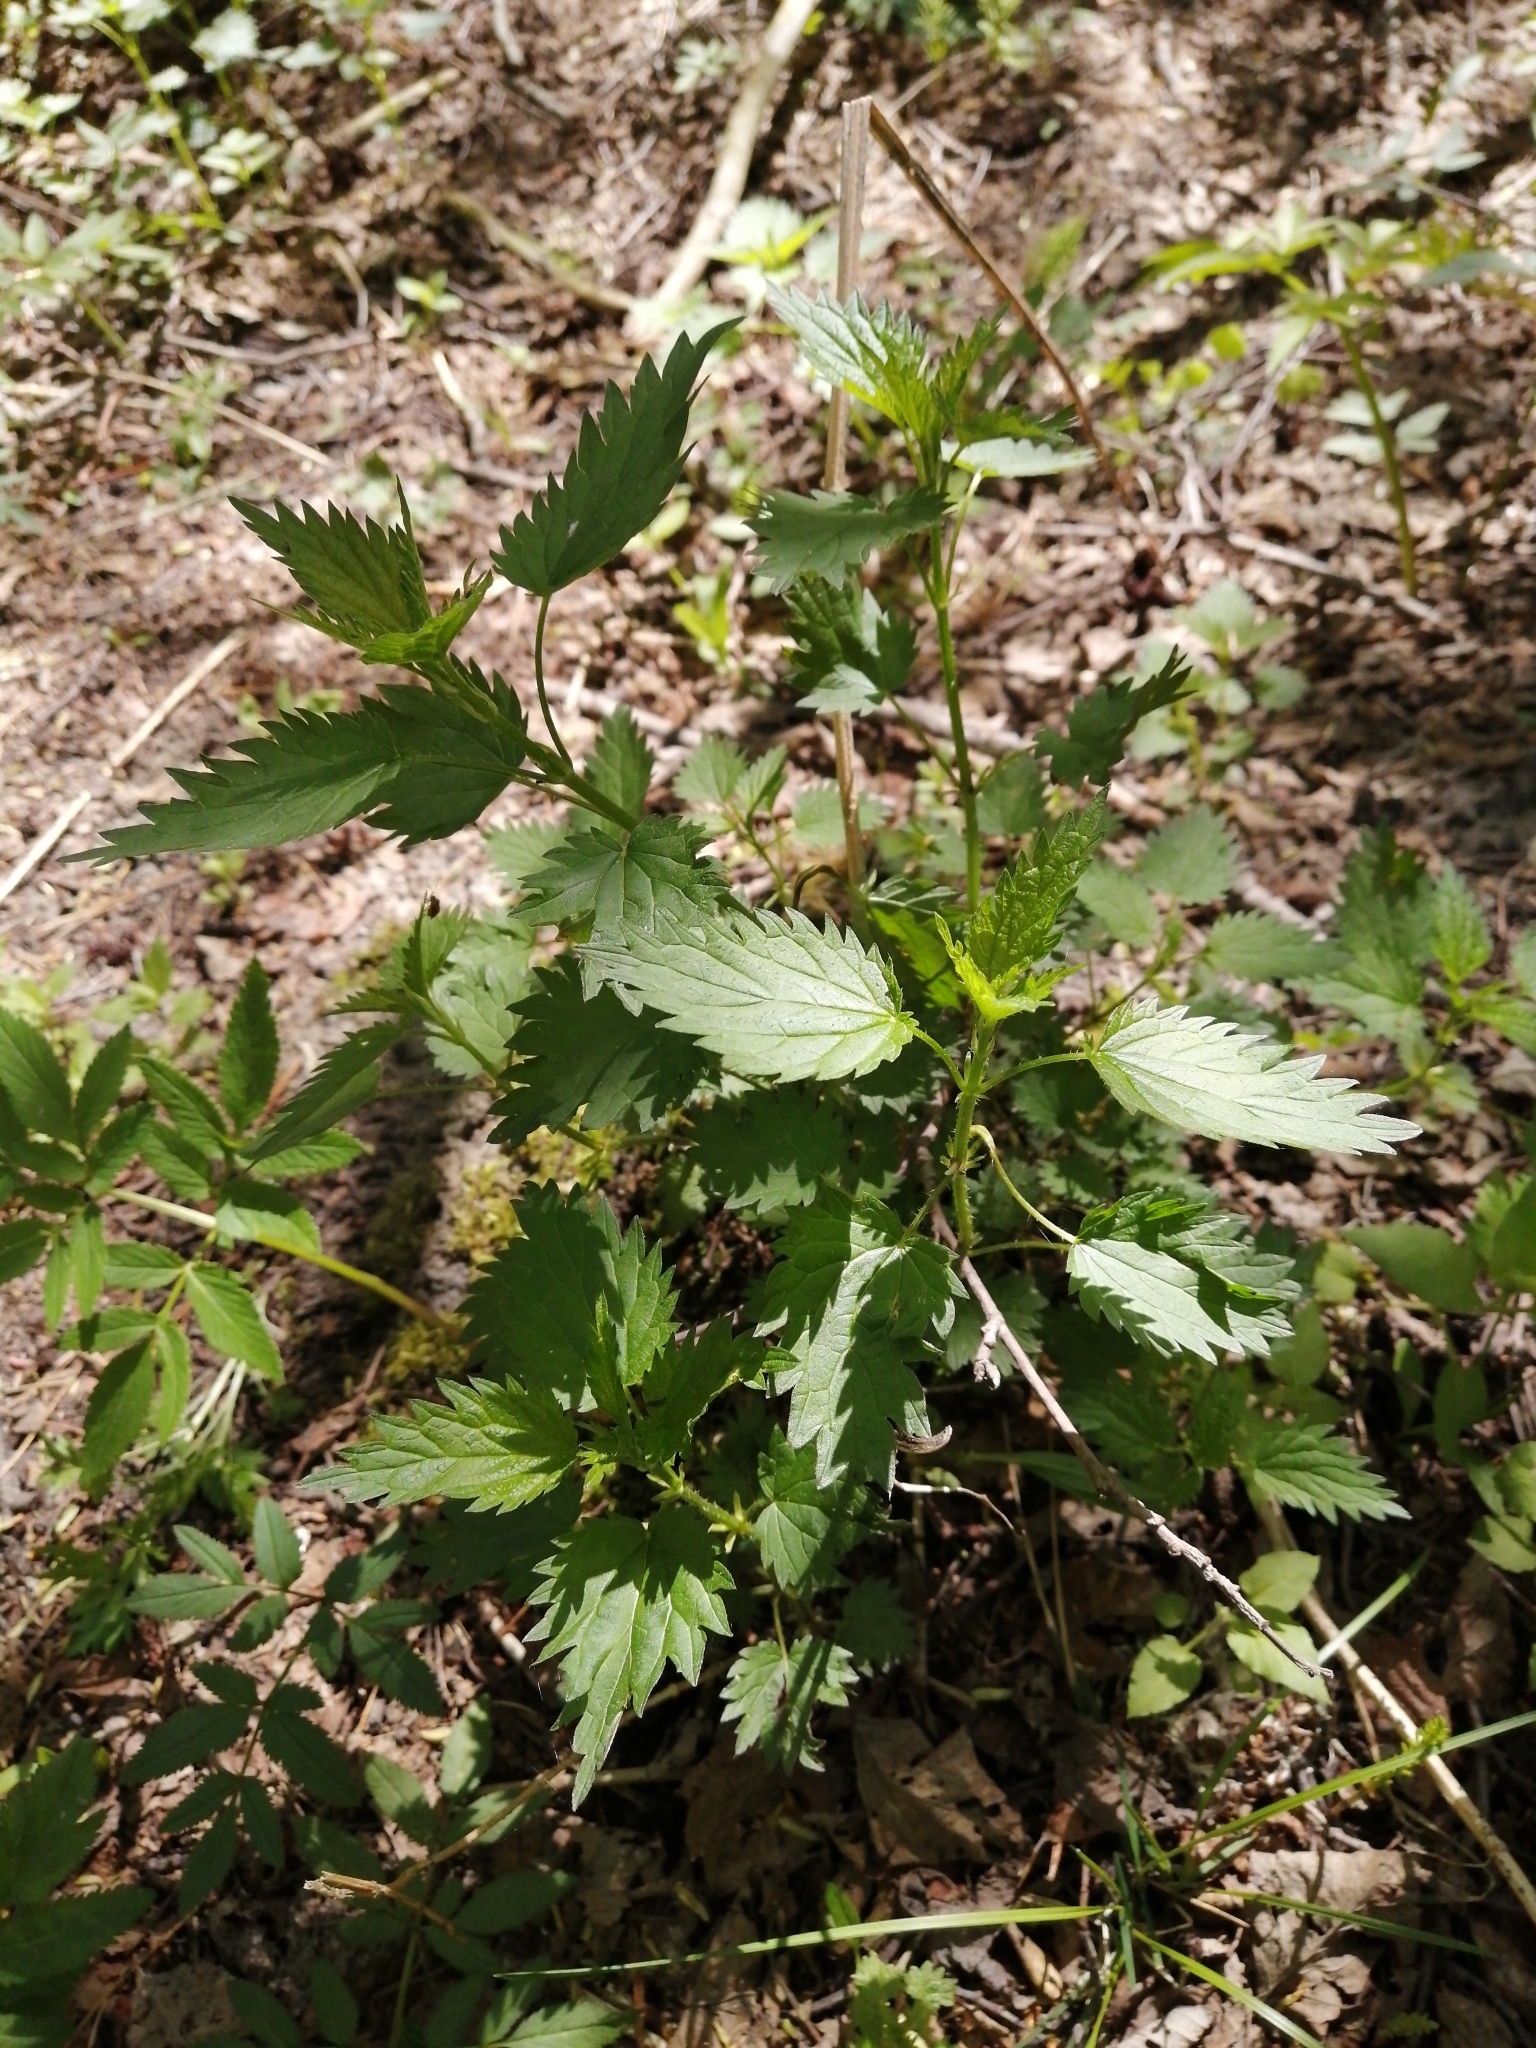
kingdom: Plantae
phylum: Tracheophyta
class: Magnoliopsida
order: Rosales
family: Urticaceae
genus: Urtica
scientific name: Urtica dioica
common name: Common nettle
